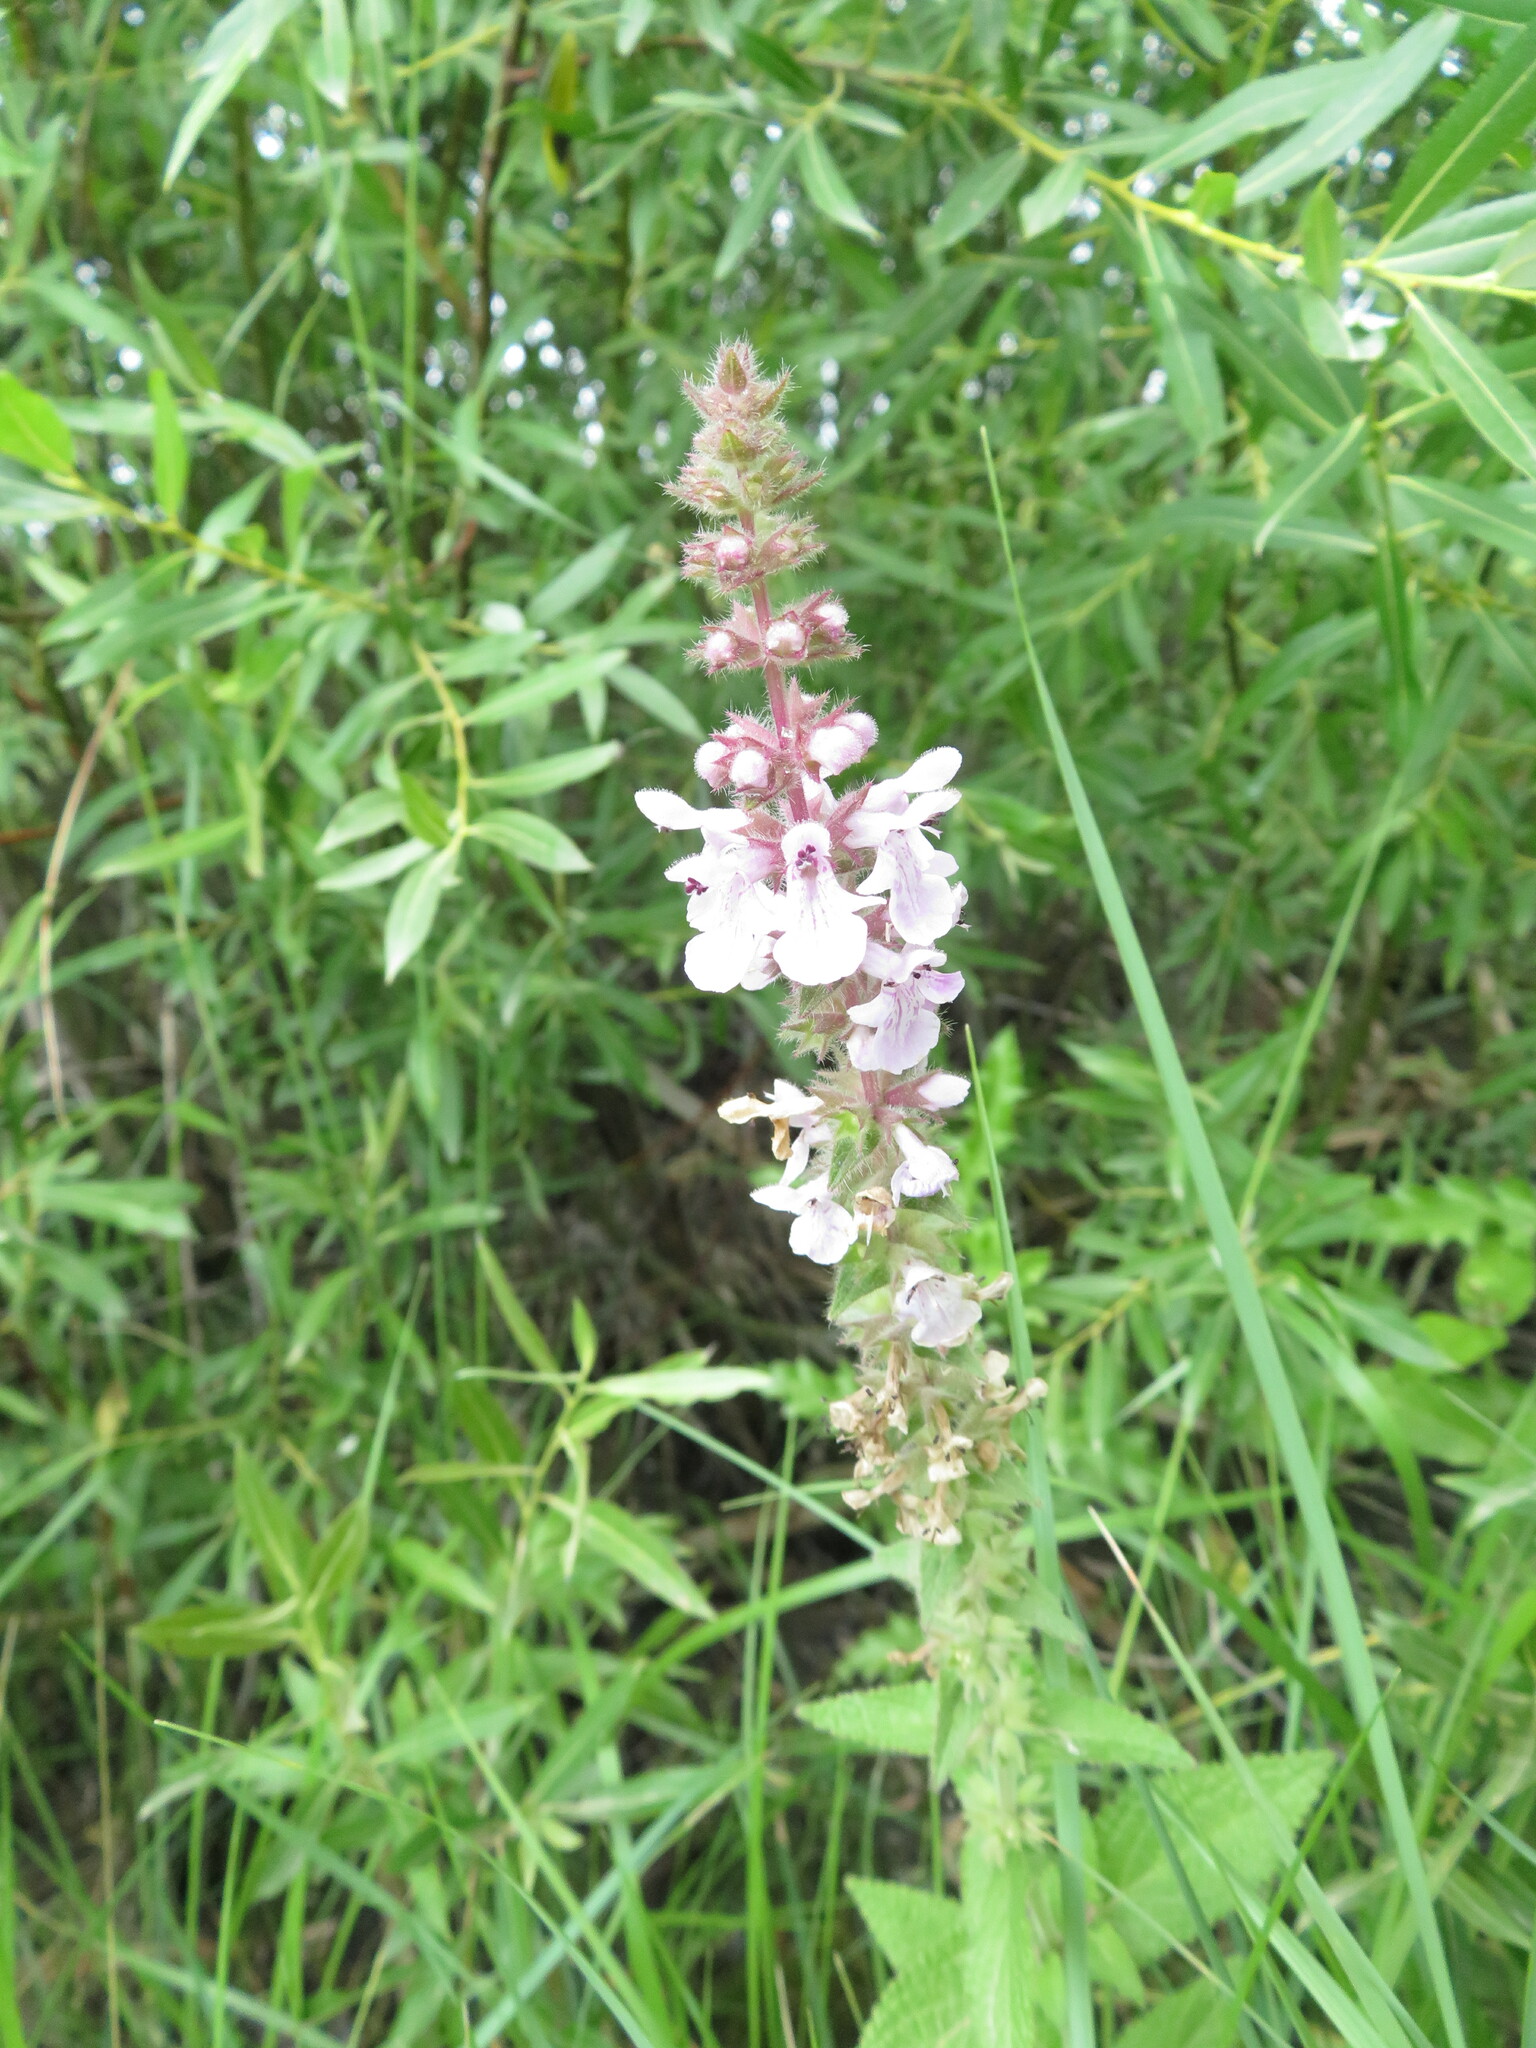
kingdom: Plantae
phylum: Tracheophyta
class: Magnoliopsida
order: Lamiales
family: Lamiaceae
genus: Stachys
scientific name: Stachys pilosa
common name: Hairy hedge-nettle
